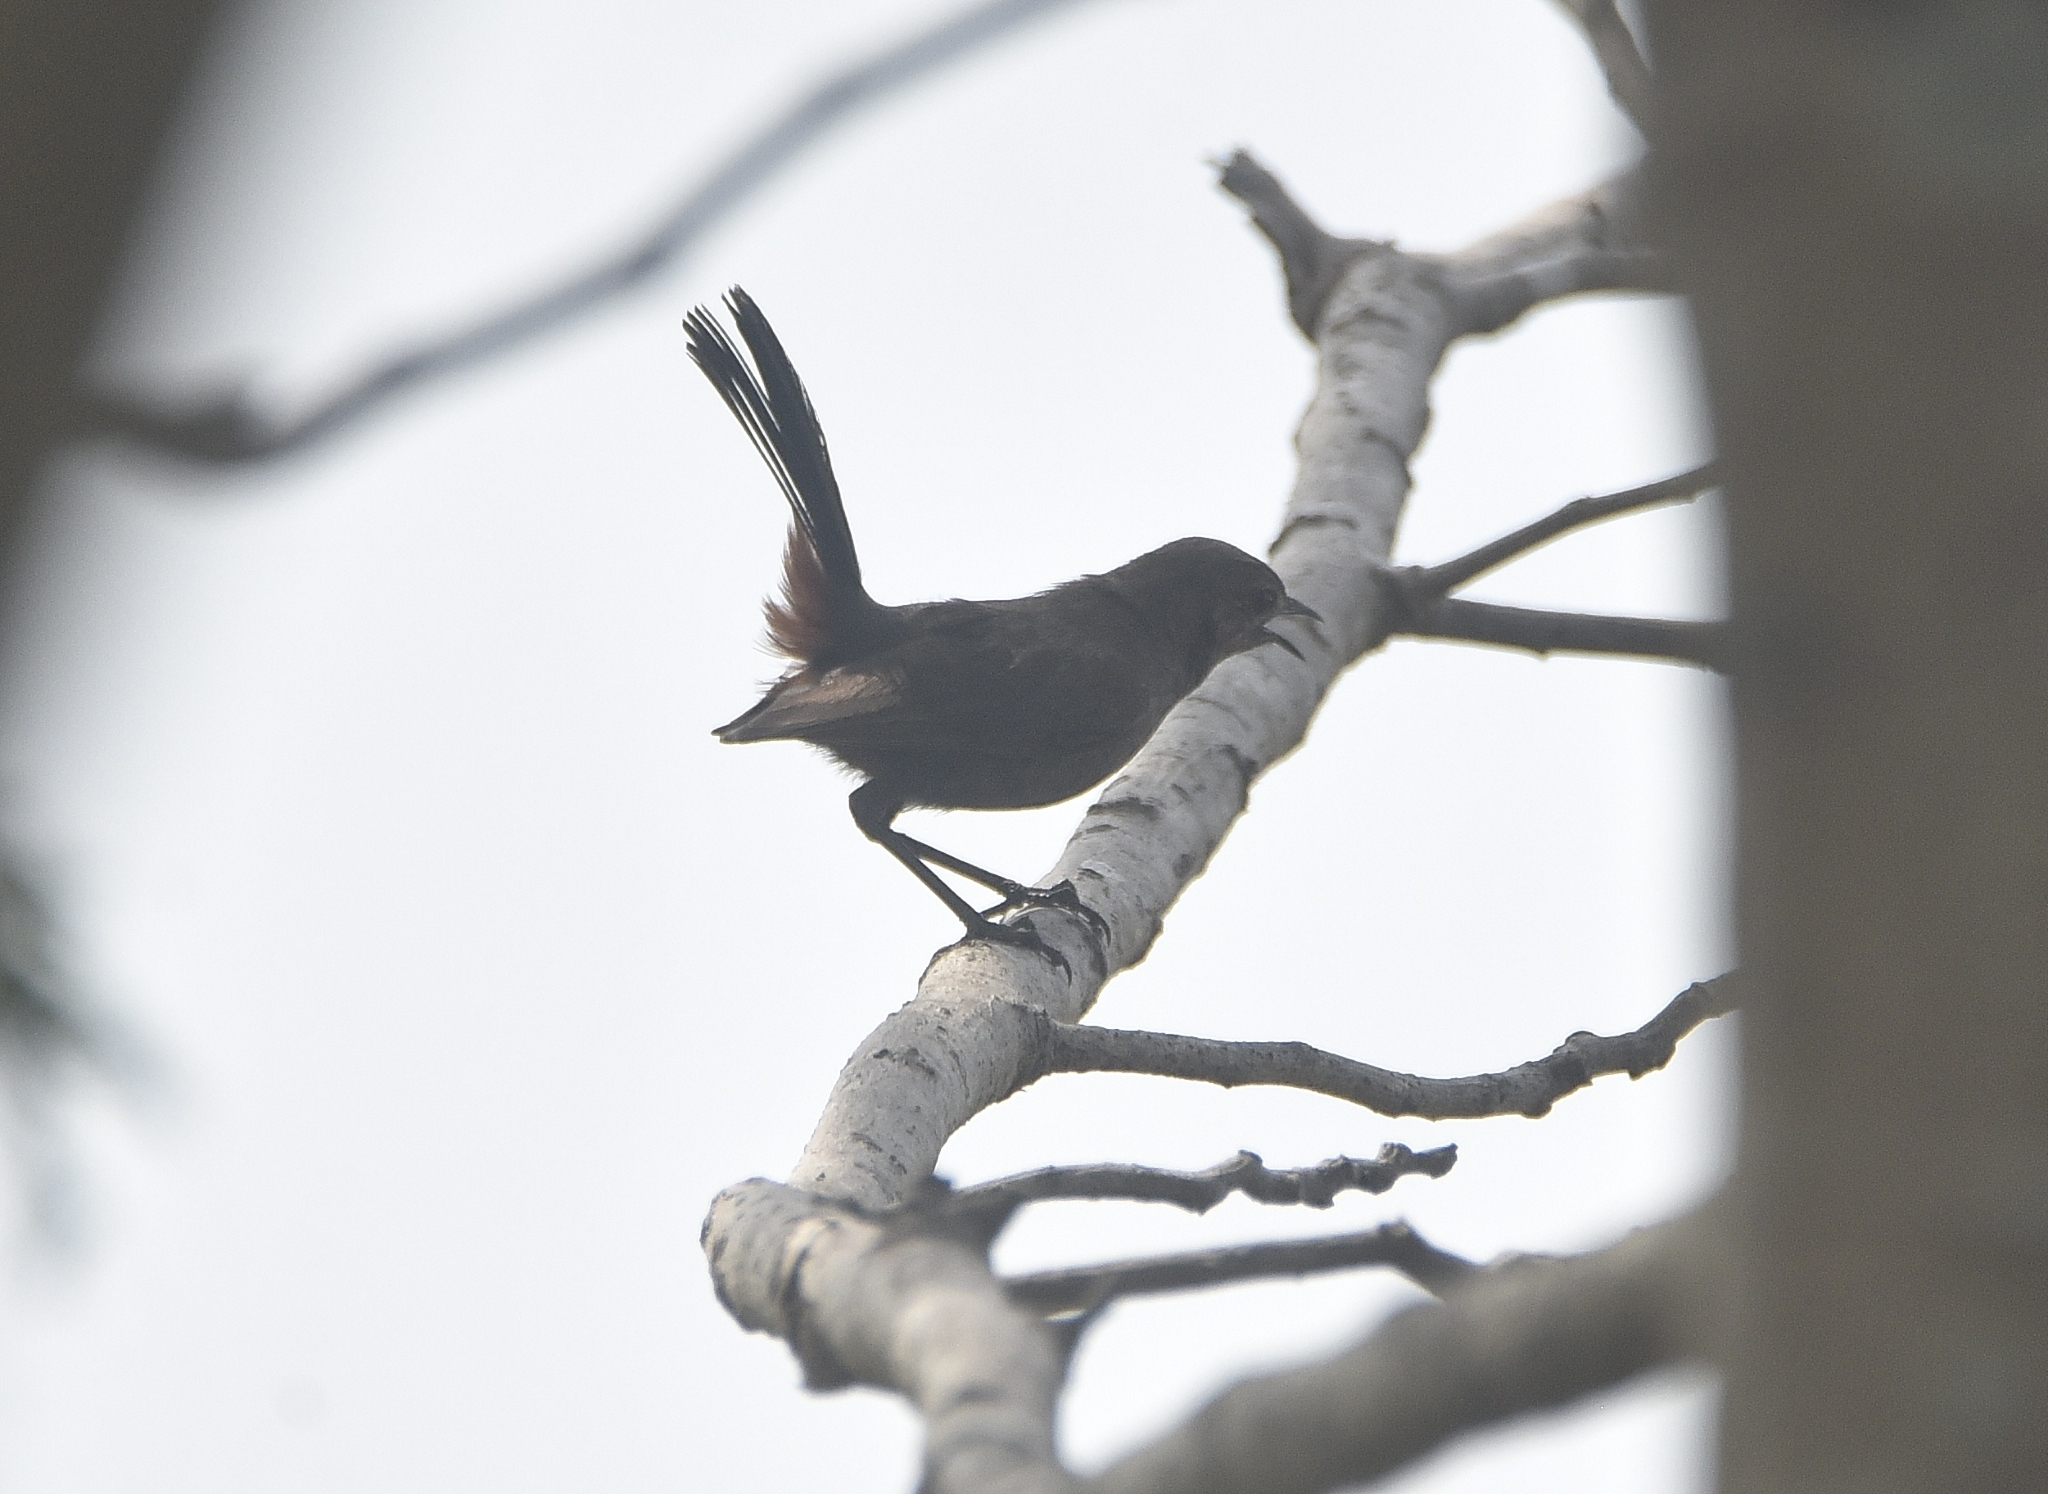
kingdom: Animalia
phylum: Chordata
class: Aves
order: Passeriformes
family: Muscicapidae
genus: Saxicoloides
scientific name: Saxicoloides fulicatus
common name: Indian robin
